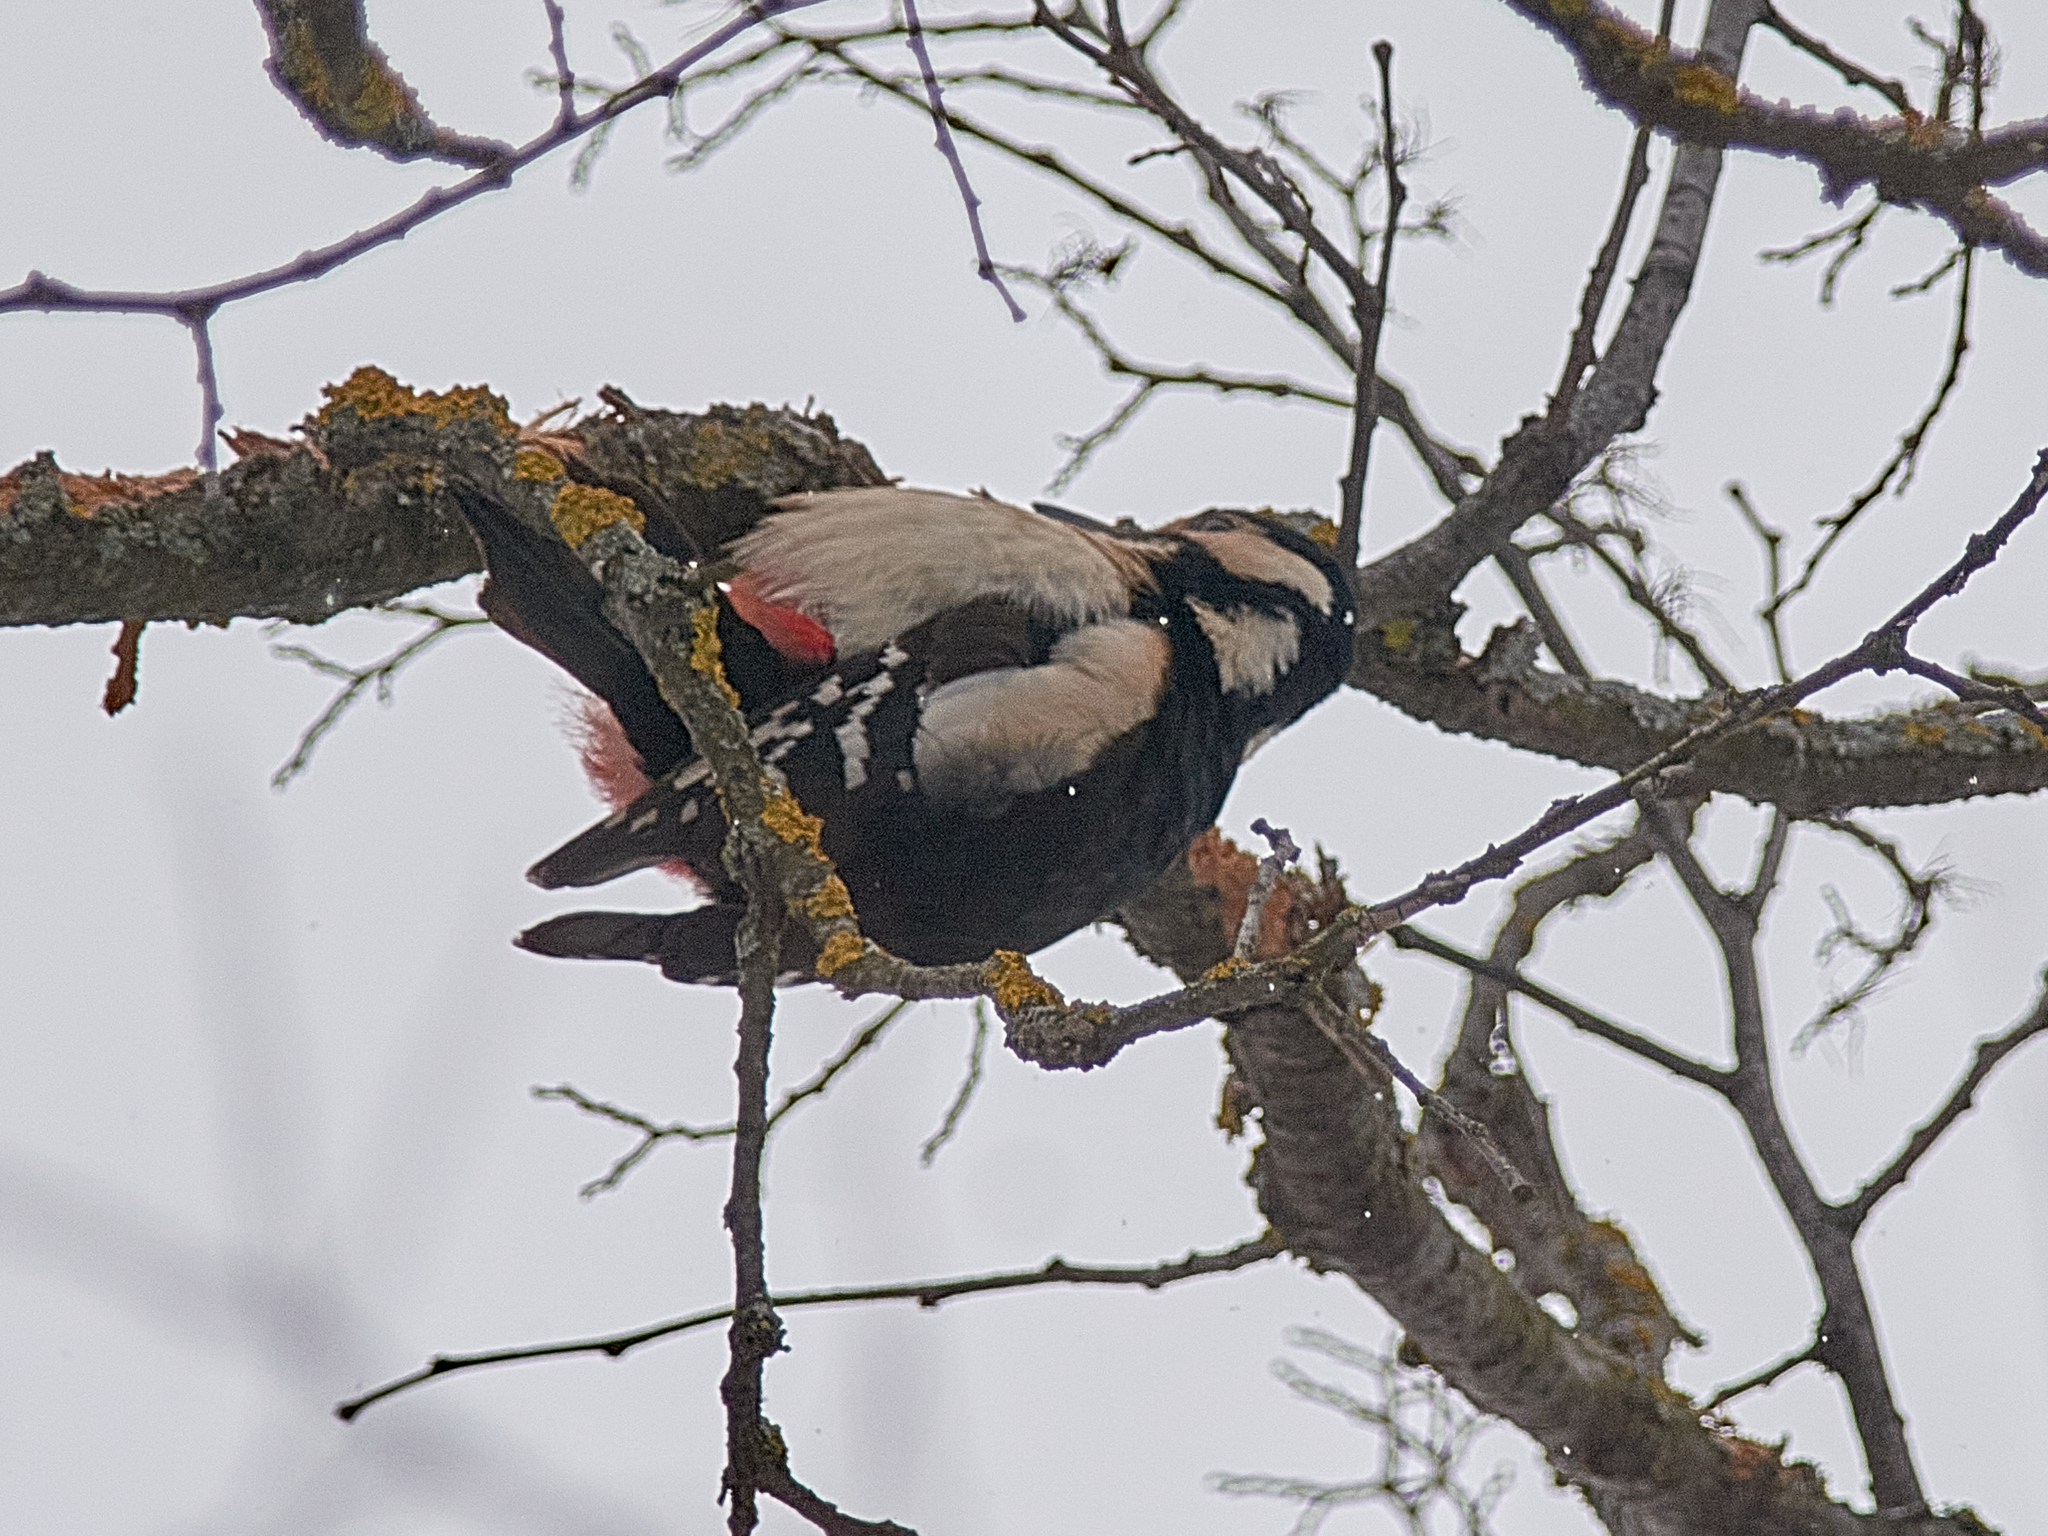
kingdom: Animalia
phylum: Chordata
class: Aves
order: Piciformes
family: Picidae
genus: Dendrocopos
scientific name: Dendrocopos major
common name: Great spotted woodpecker
